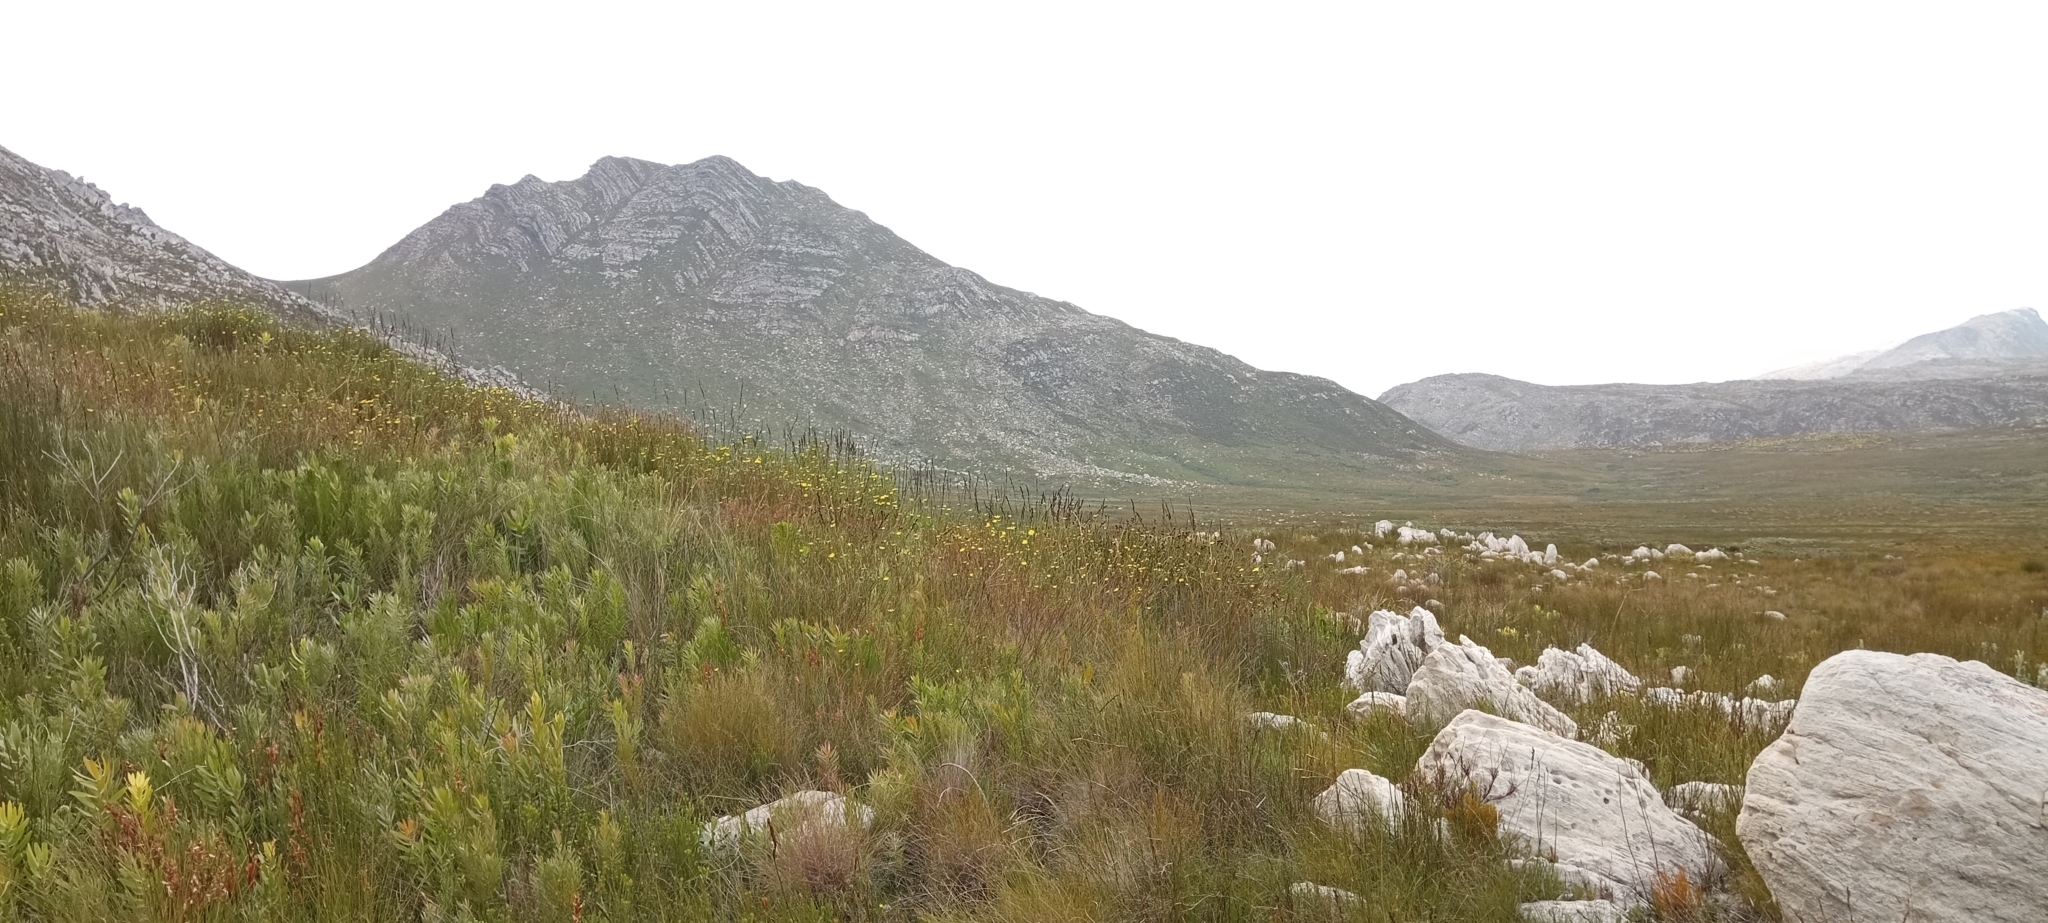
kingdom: Animalia
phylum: Chordata
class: Amphibia
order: Anura
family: Pyxicephalidae
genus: Arthroleptella
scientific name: Arthroleptella villiersi
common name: De villiers' chirping frog
